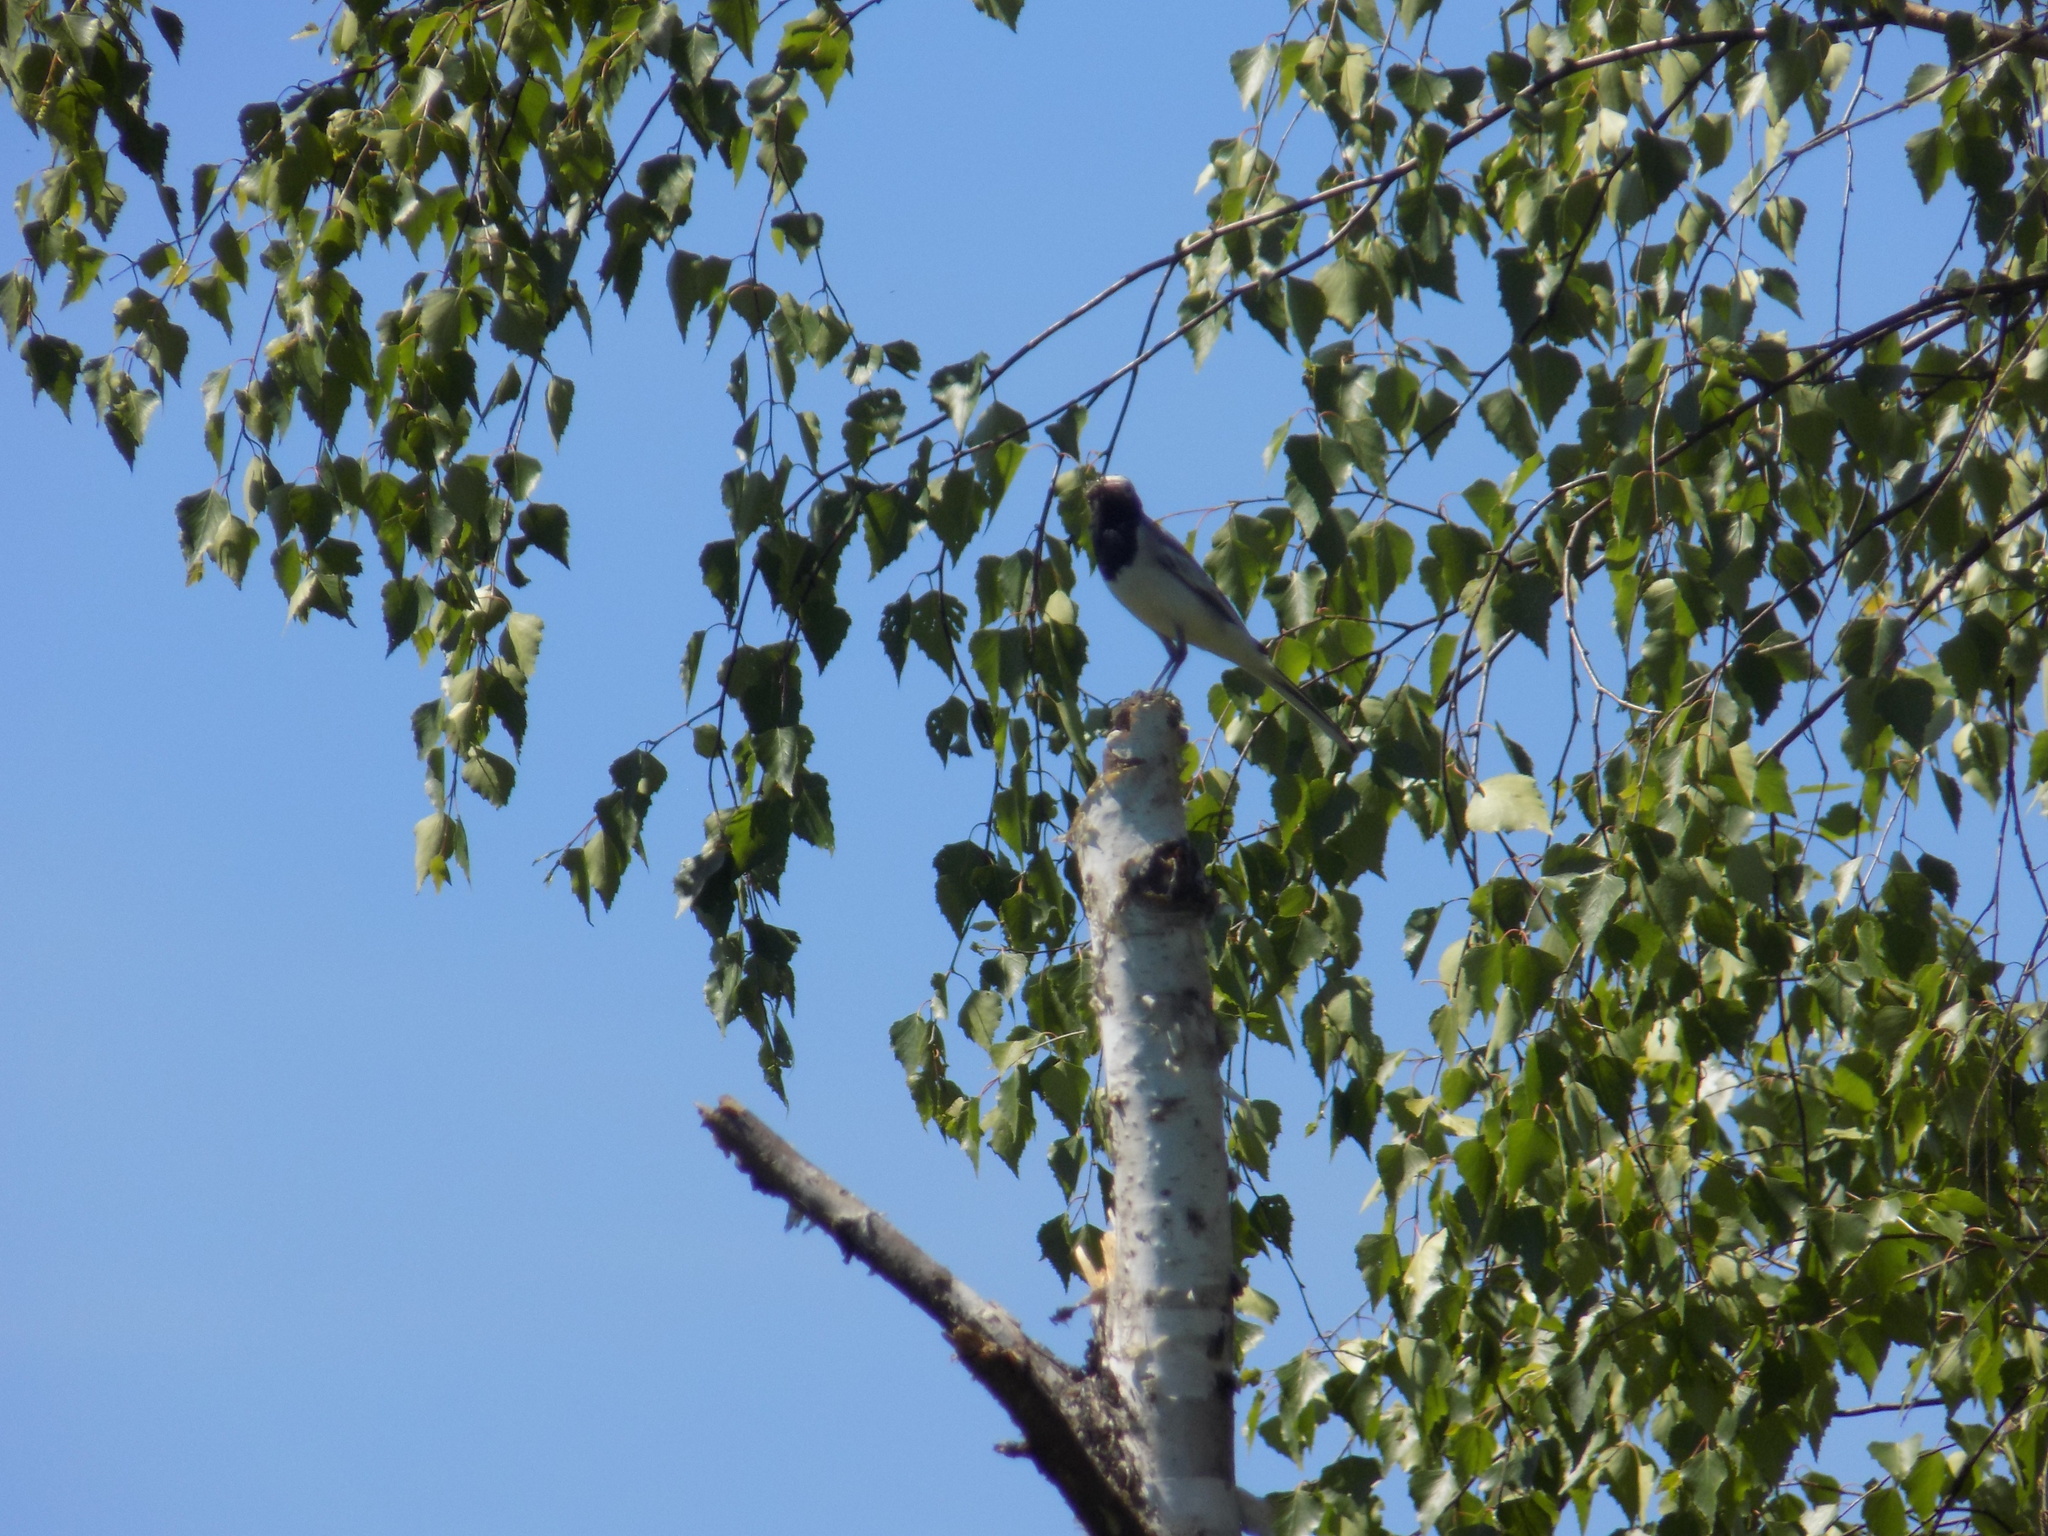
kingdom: Animalia
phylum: Chordata
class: Aves
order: Passeriformes
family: Motacillidae
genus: Motacilla
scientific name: Motacilla alba
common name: White wagtail
